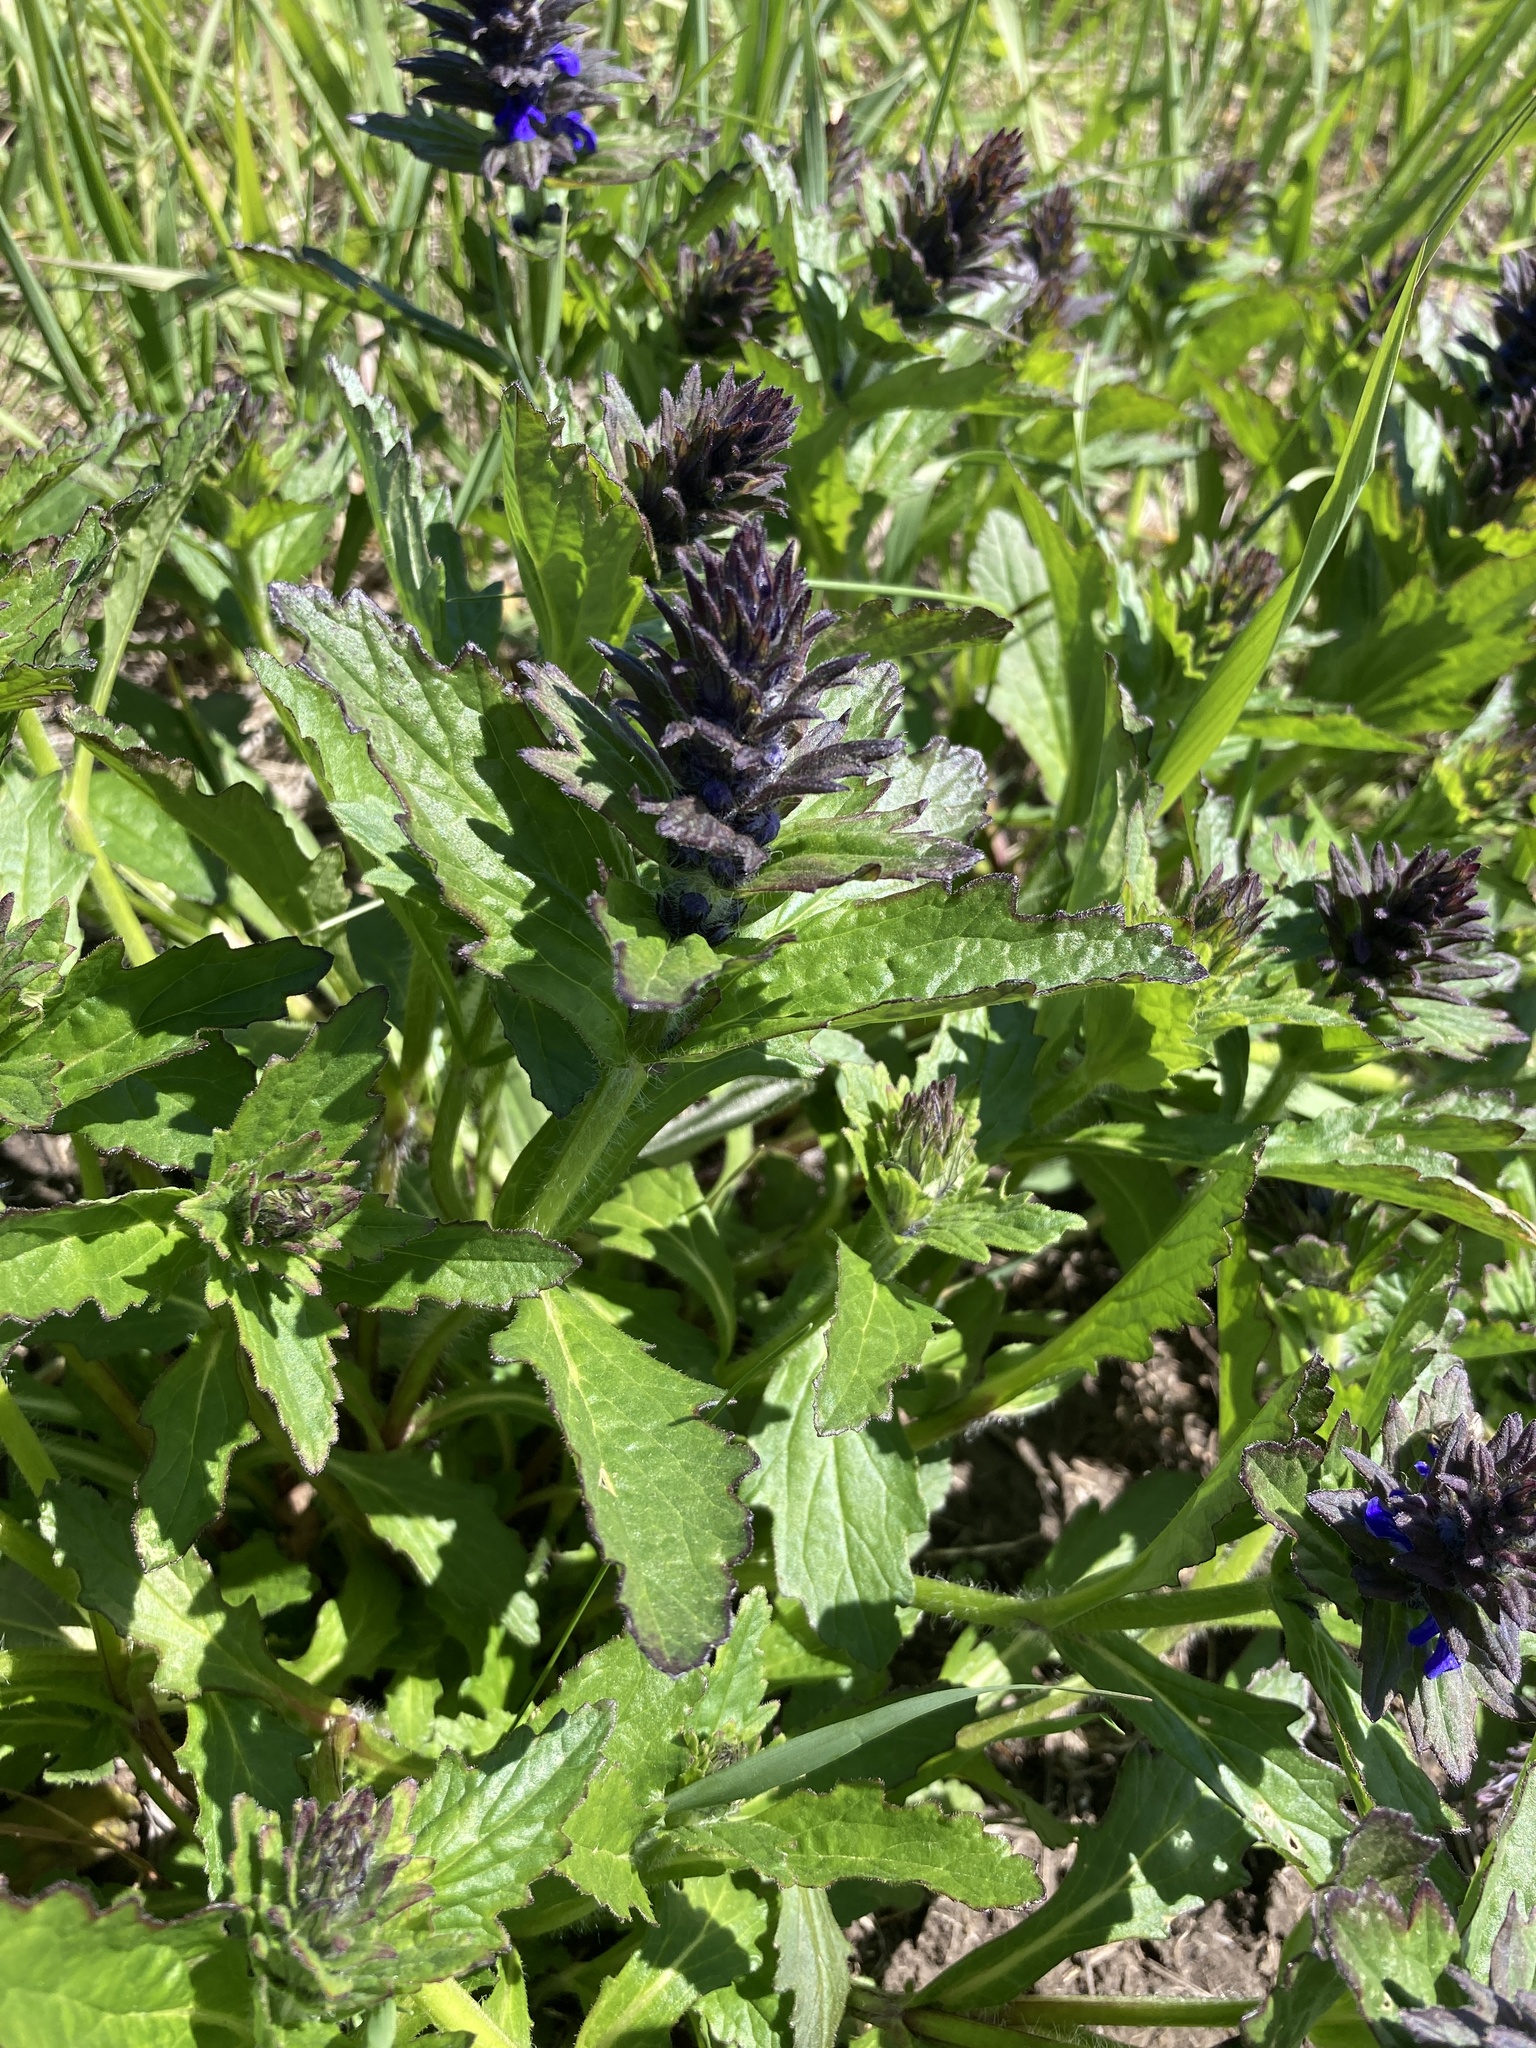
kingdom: Plantae
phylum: Tracheophyta
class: Magnoliopsida
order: Lamiales
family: Lamiaceae
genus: Ajuga
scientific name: Ajuga genevensis
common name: Blue bugle
